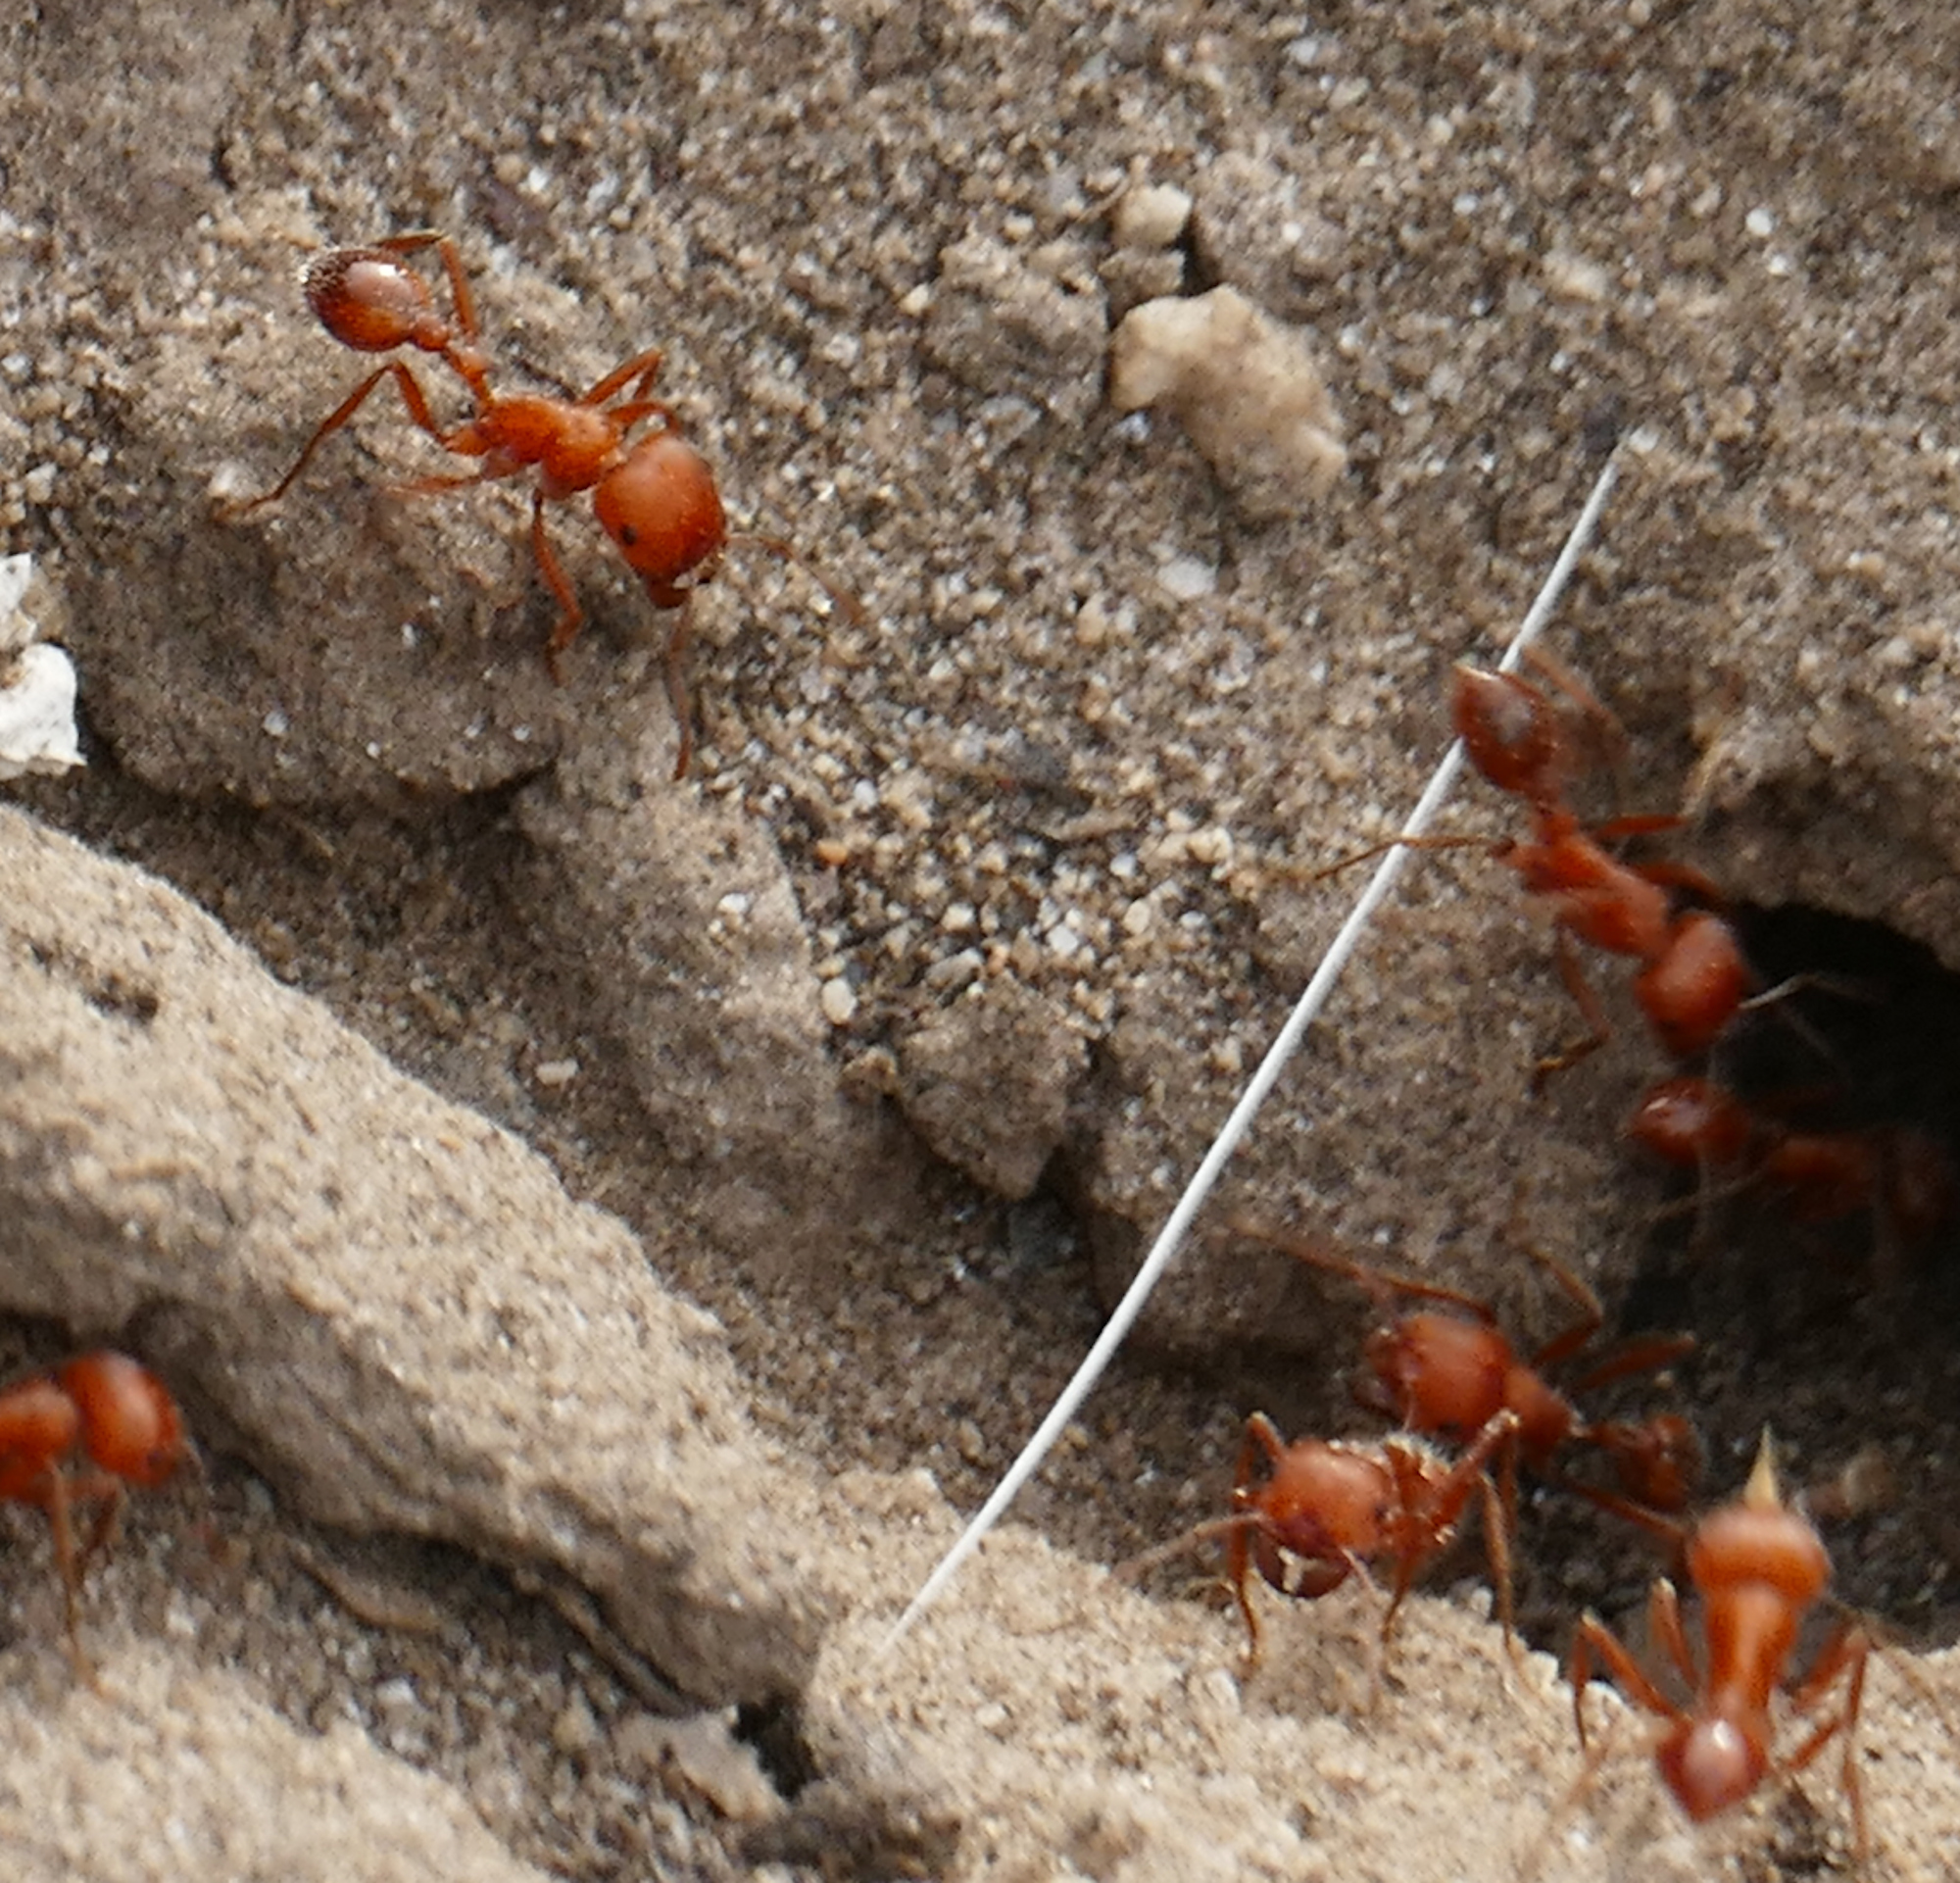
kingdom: Animalia
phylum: Arthropoda
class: Insecta
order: Hymenoptera
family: Formicidae
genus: Pogonomyrmex
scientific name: Pogonomyrmex maricopa
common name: Maricopa harvester ant
